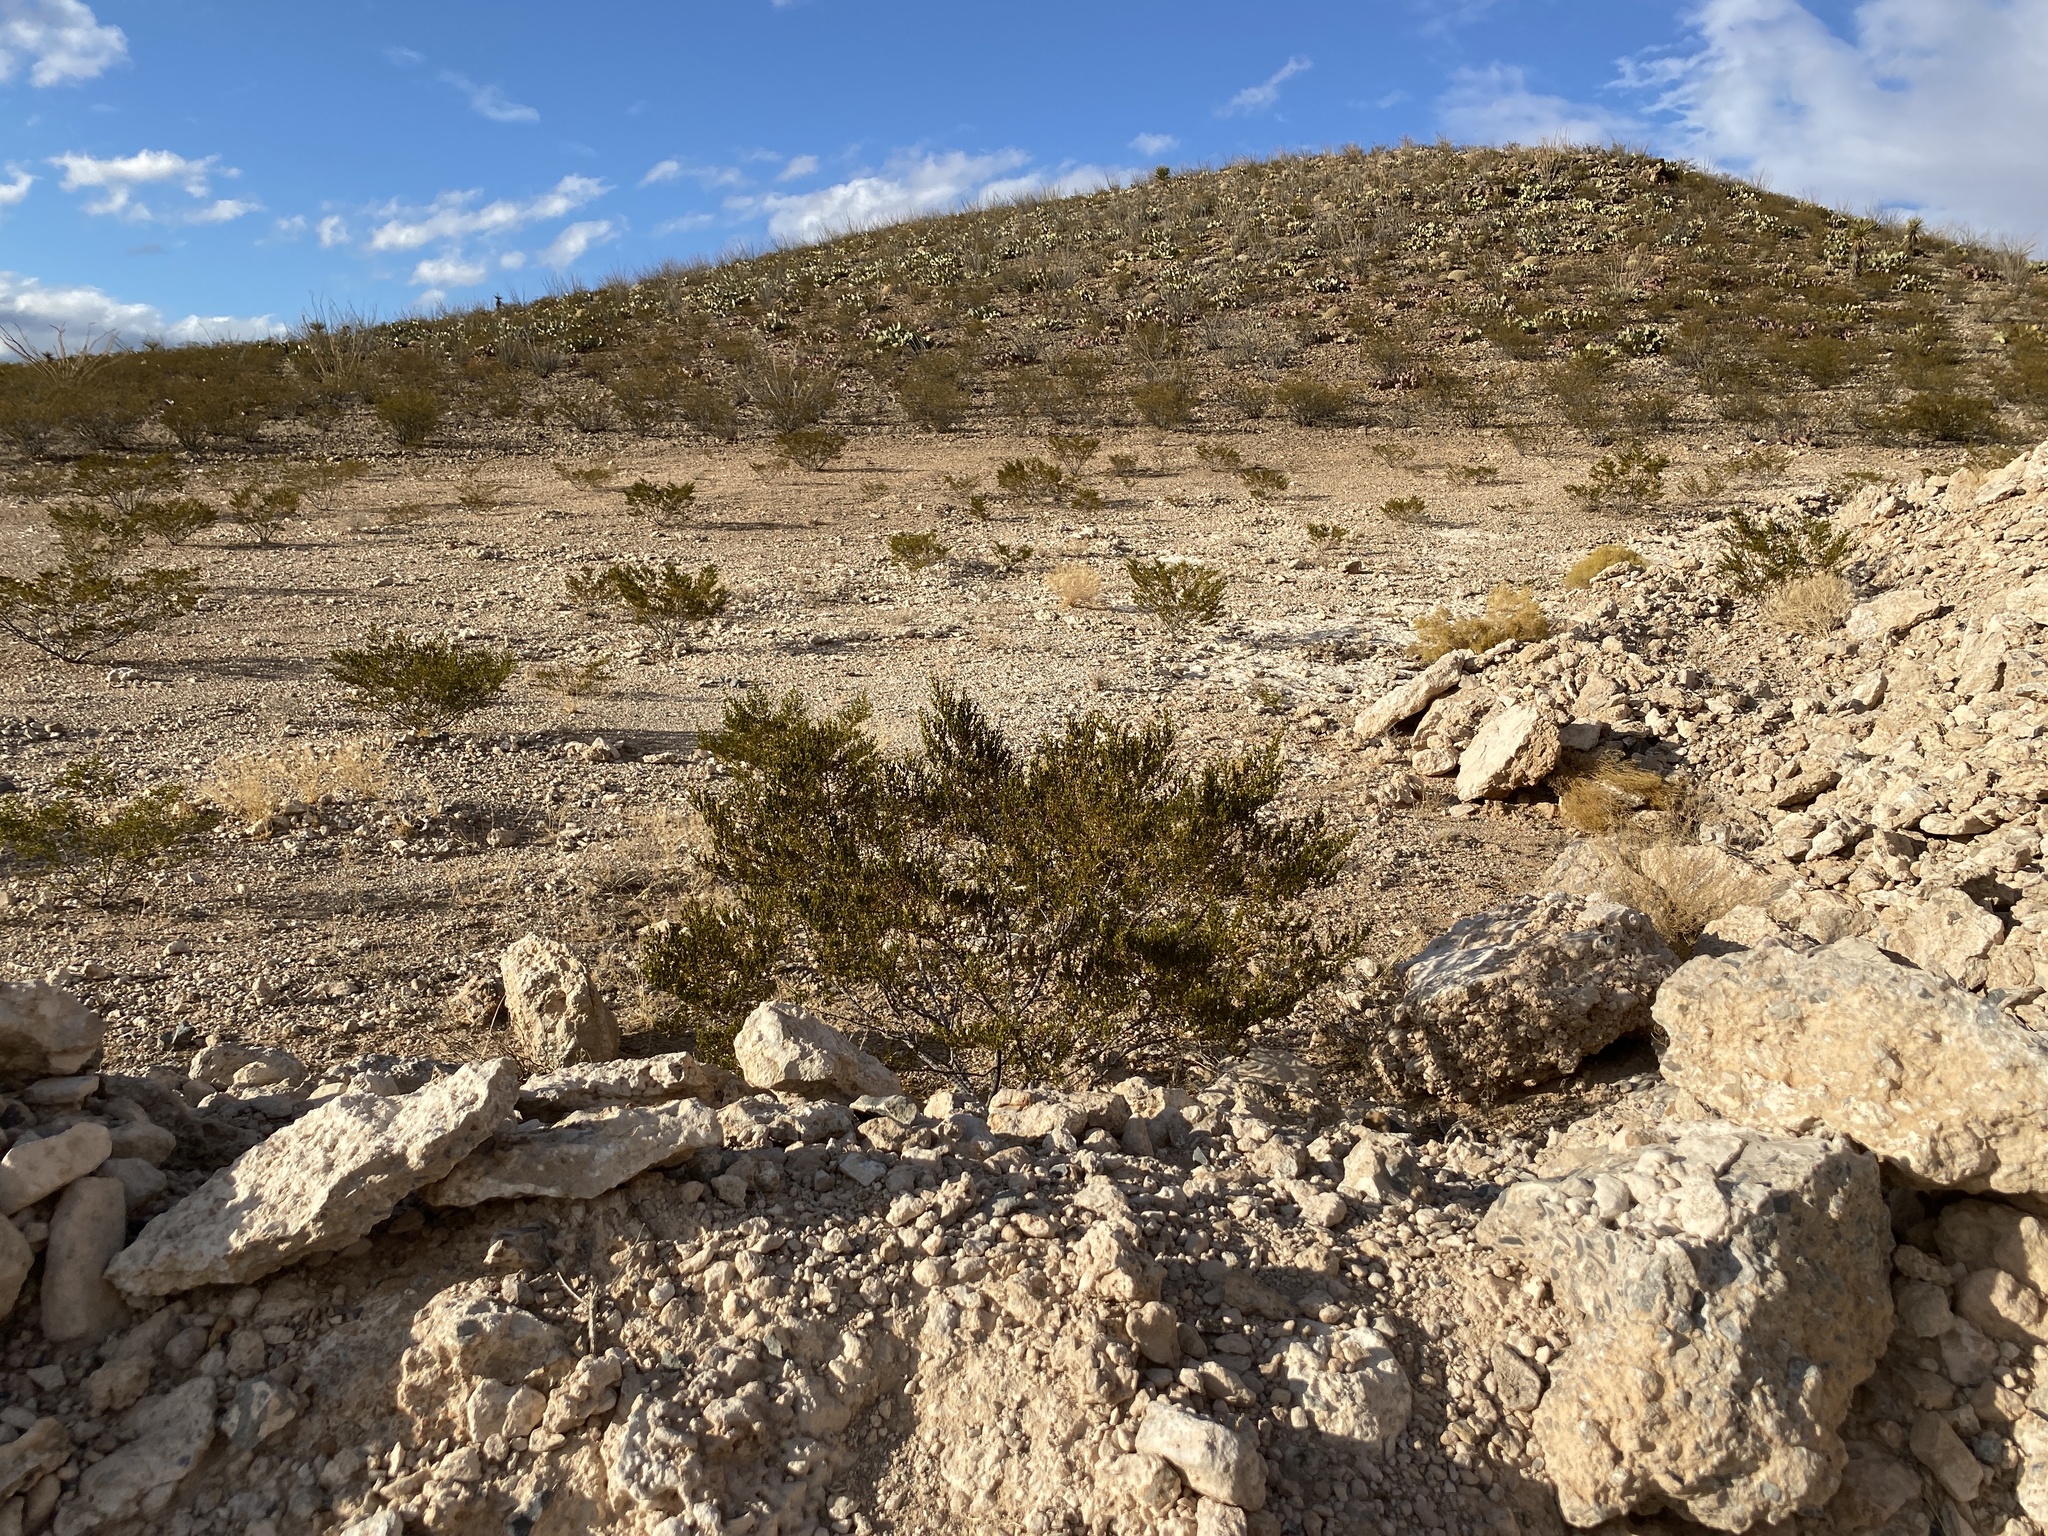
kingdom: Plantae
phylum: Tracheophyta
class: Magnoliopsida
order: Zygophyllales
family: Zygophyllaceae
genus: Larrea
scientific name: Larrea tridentata
